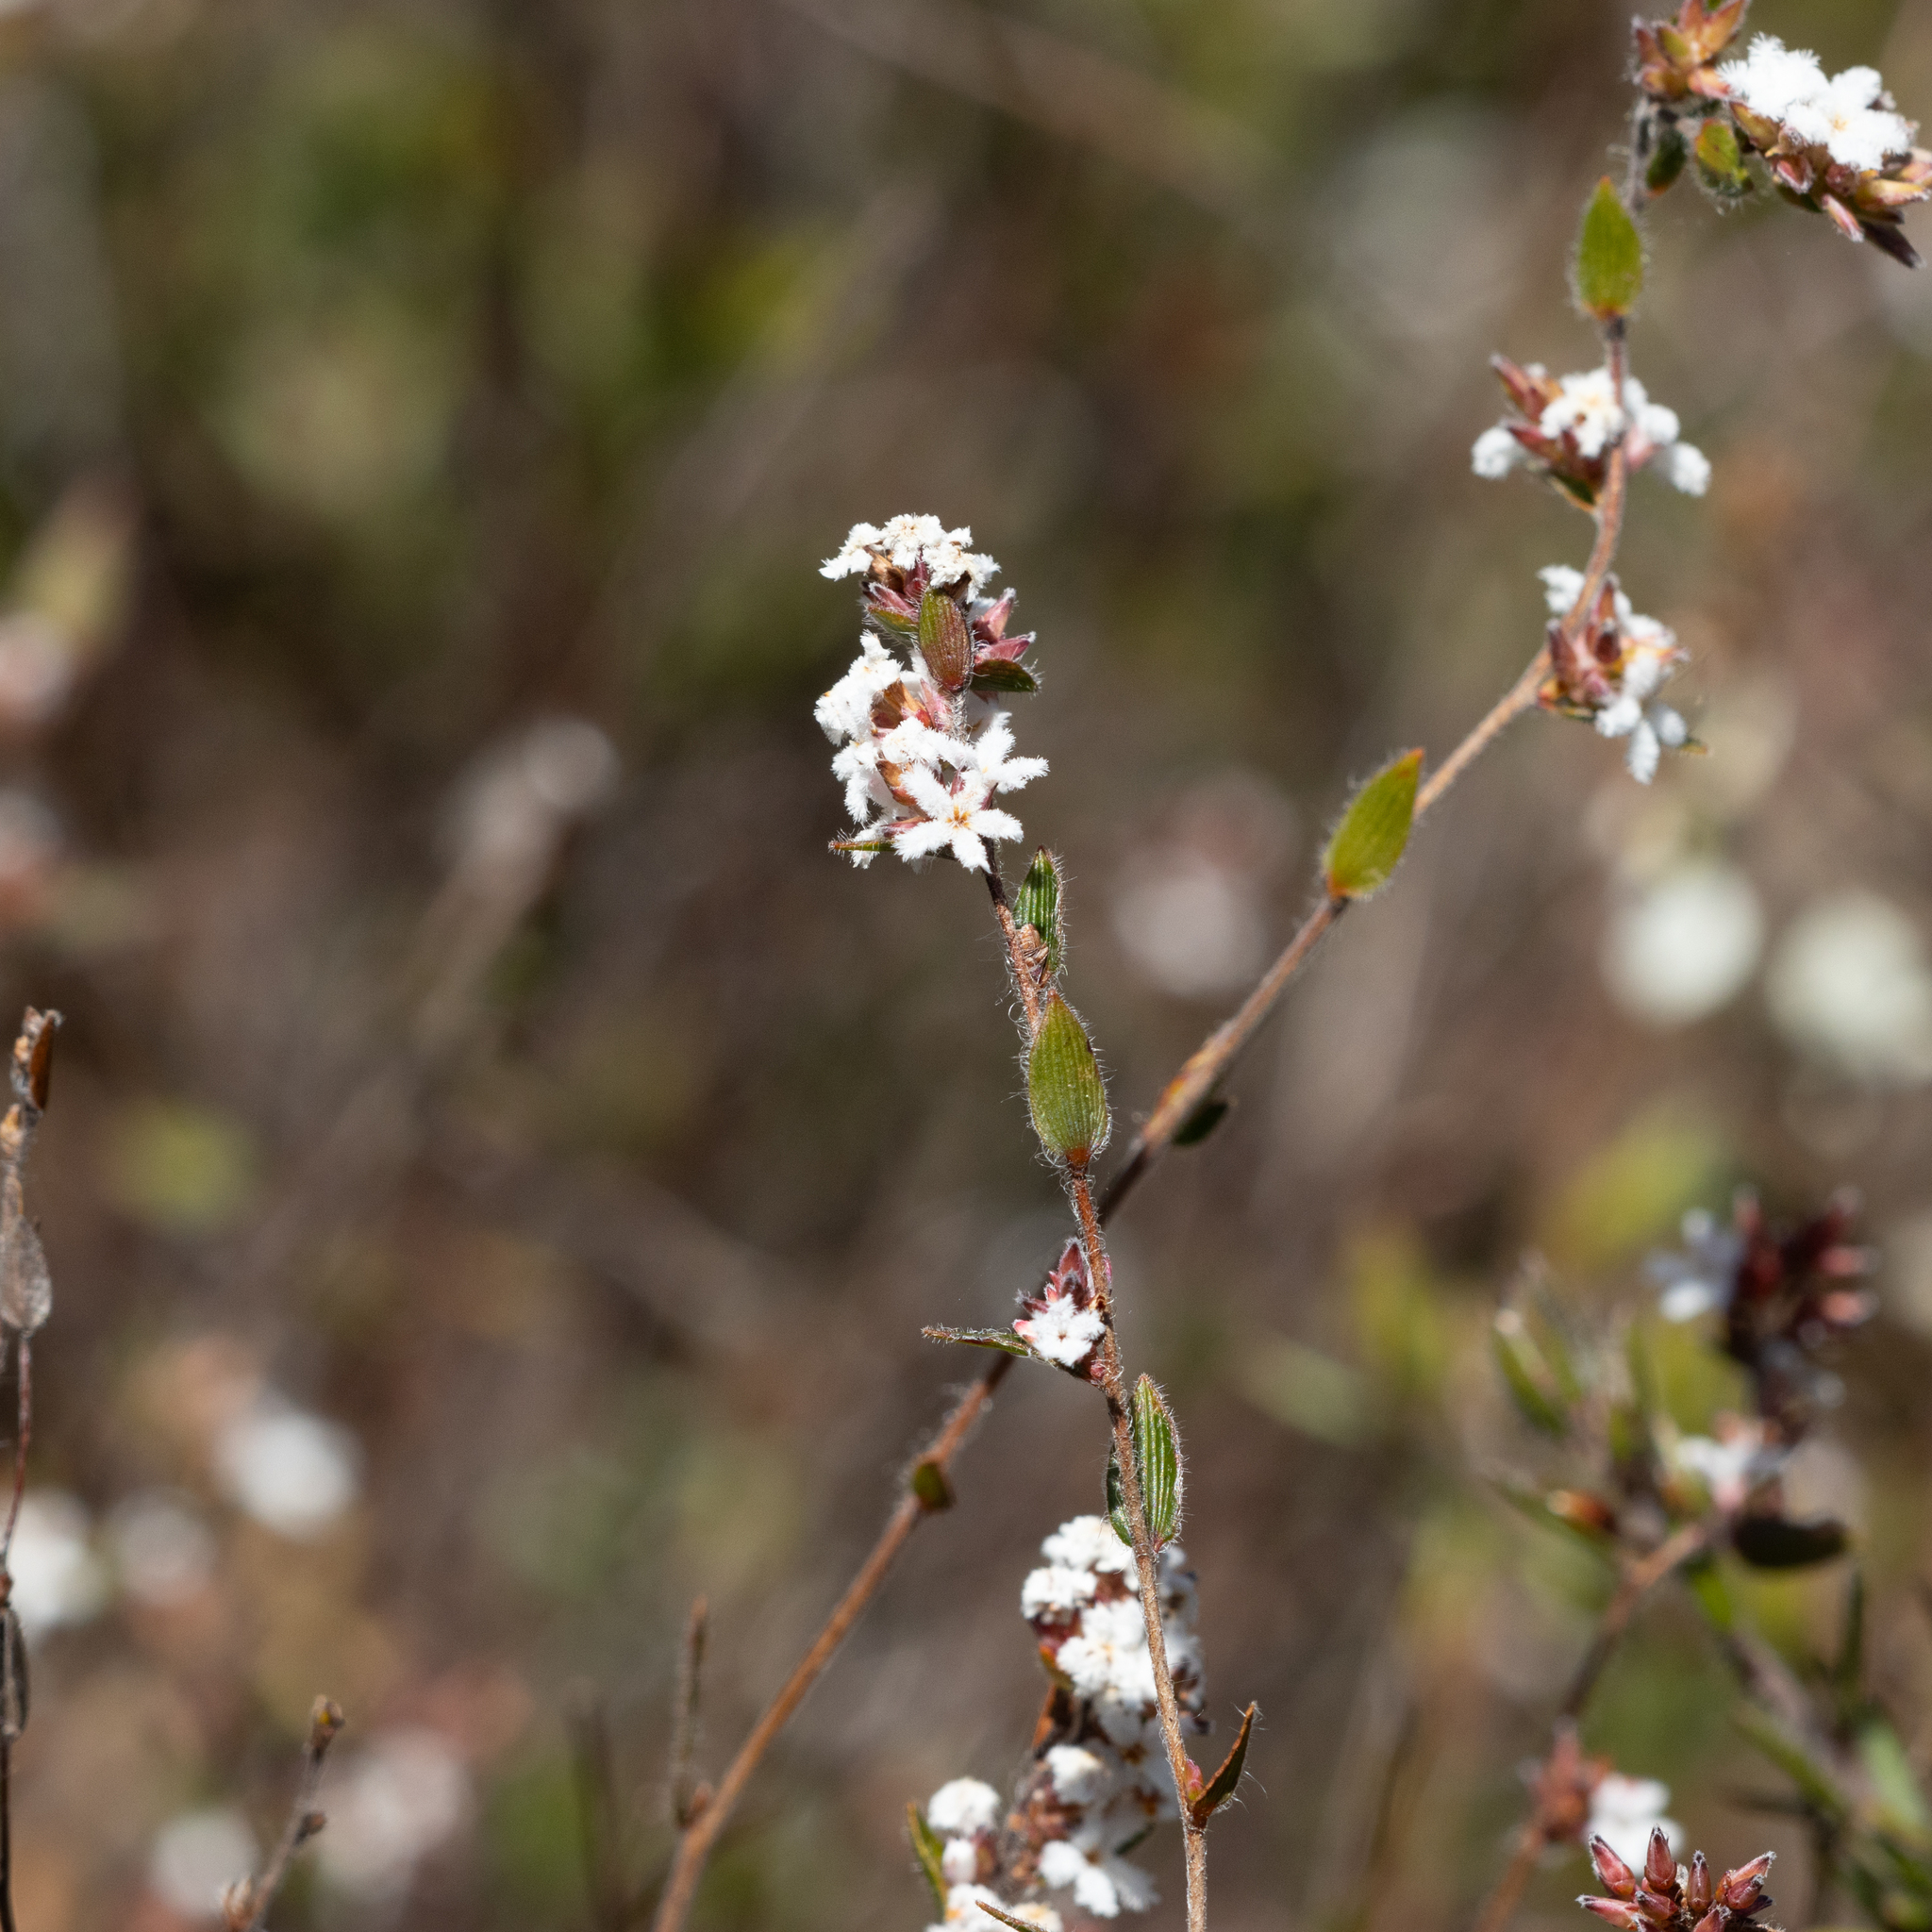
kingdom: Plantae
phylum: Tracheophyta
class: Magnoliopsida
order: Ericales
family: Ericaceae
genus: Leucopogon
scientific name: Leucopogon concurvus
